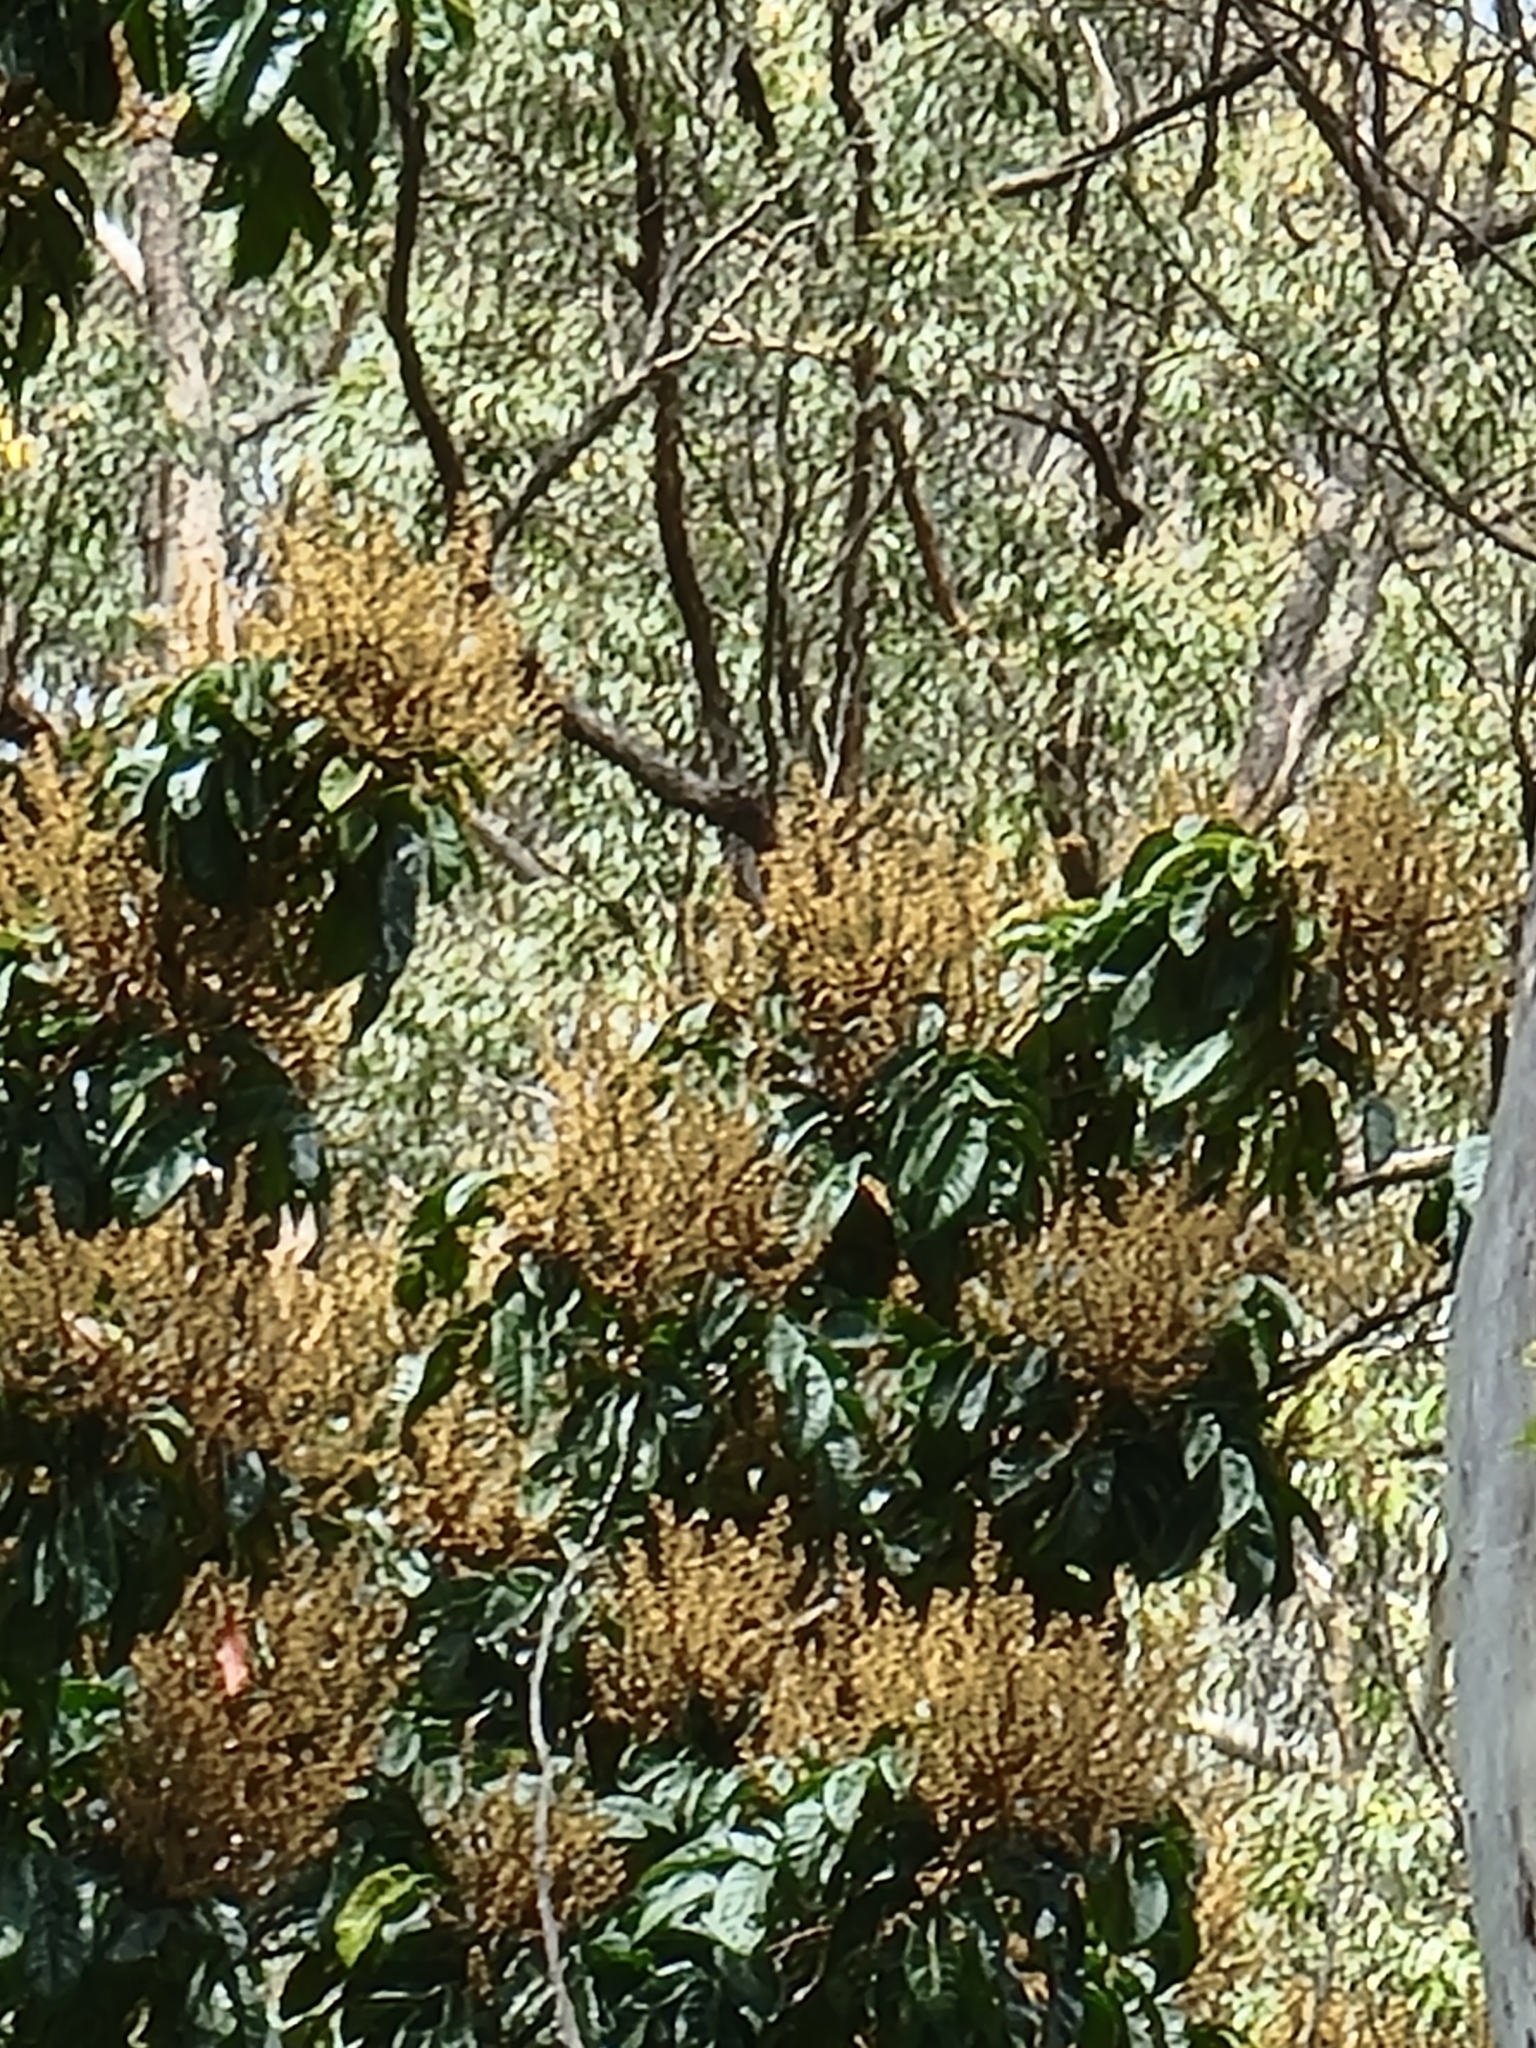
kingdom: Plantae
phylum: Tracheophyta
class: Magnoliopsida
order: Sapindales
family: Sapindaceae
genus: Diploglottis
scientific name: Diploglottis australis
